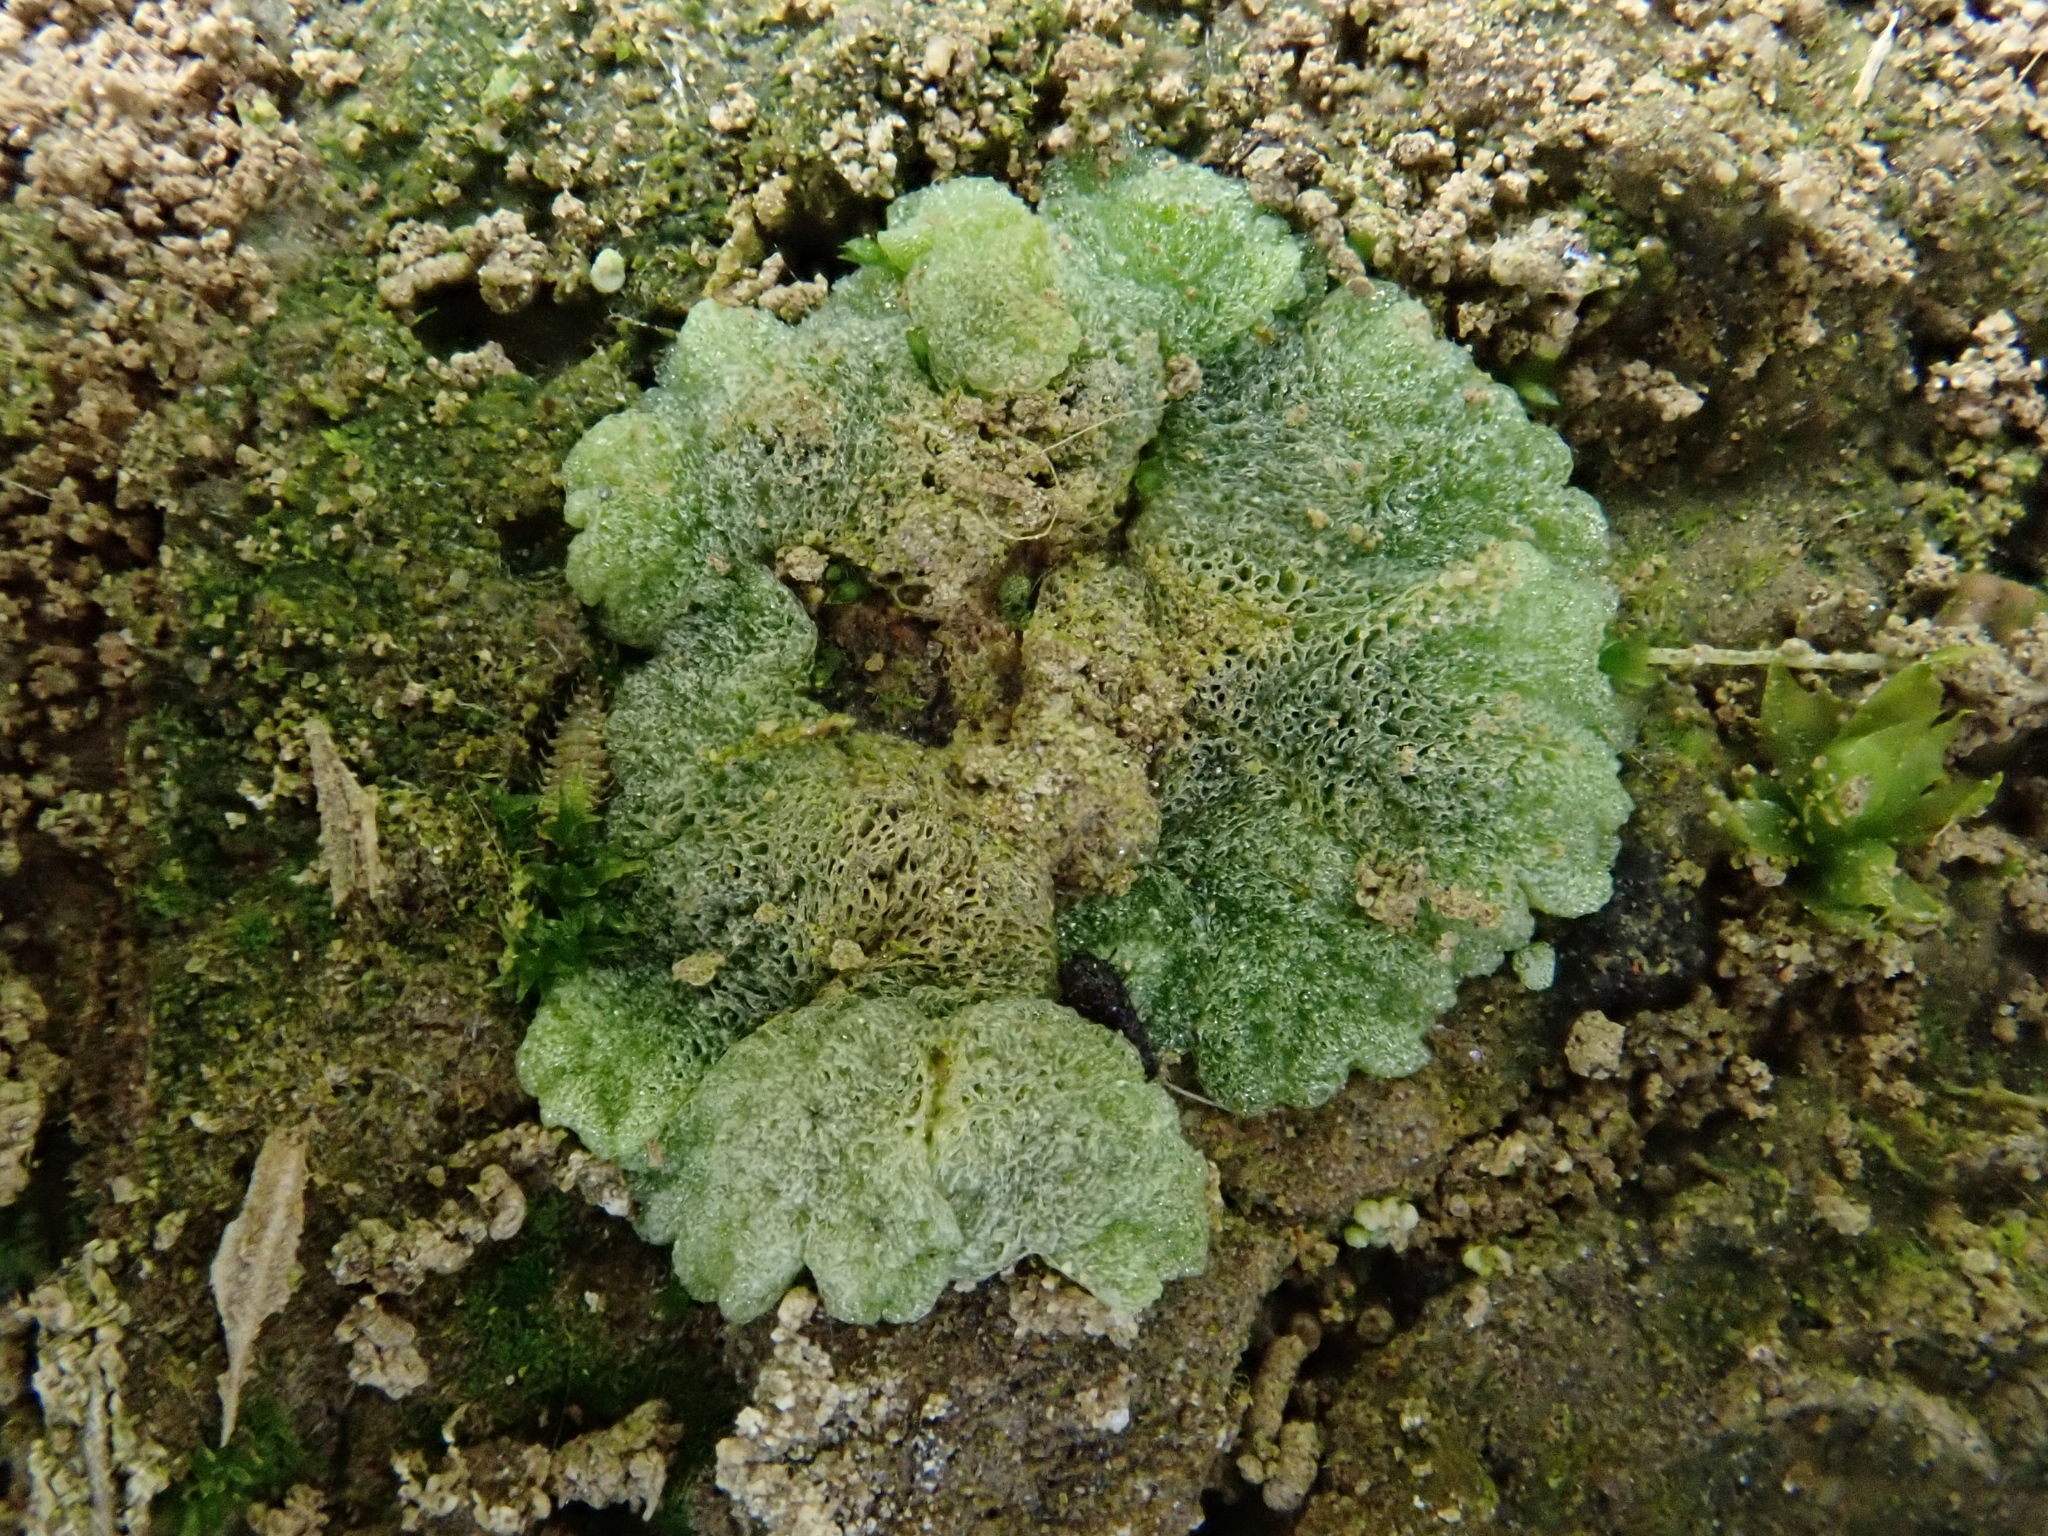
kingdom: Plantae
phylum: Marchantiophyta
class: Marchantiopsida
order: Marchantiales
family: Ricciaceae
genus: Riccia
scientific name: Riccia cavernosa
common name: Cavernous crystalwort
